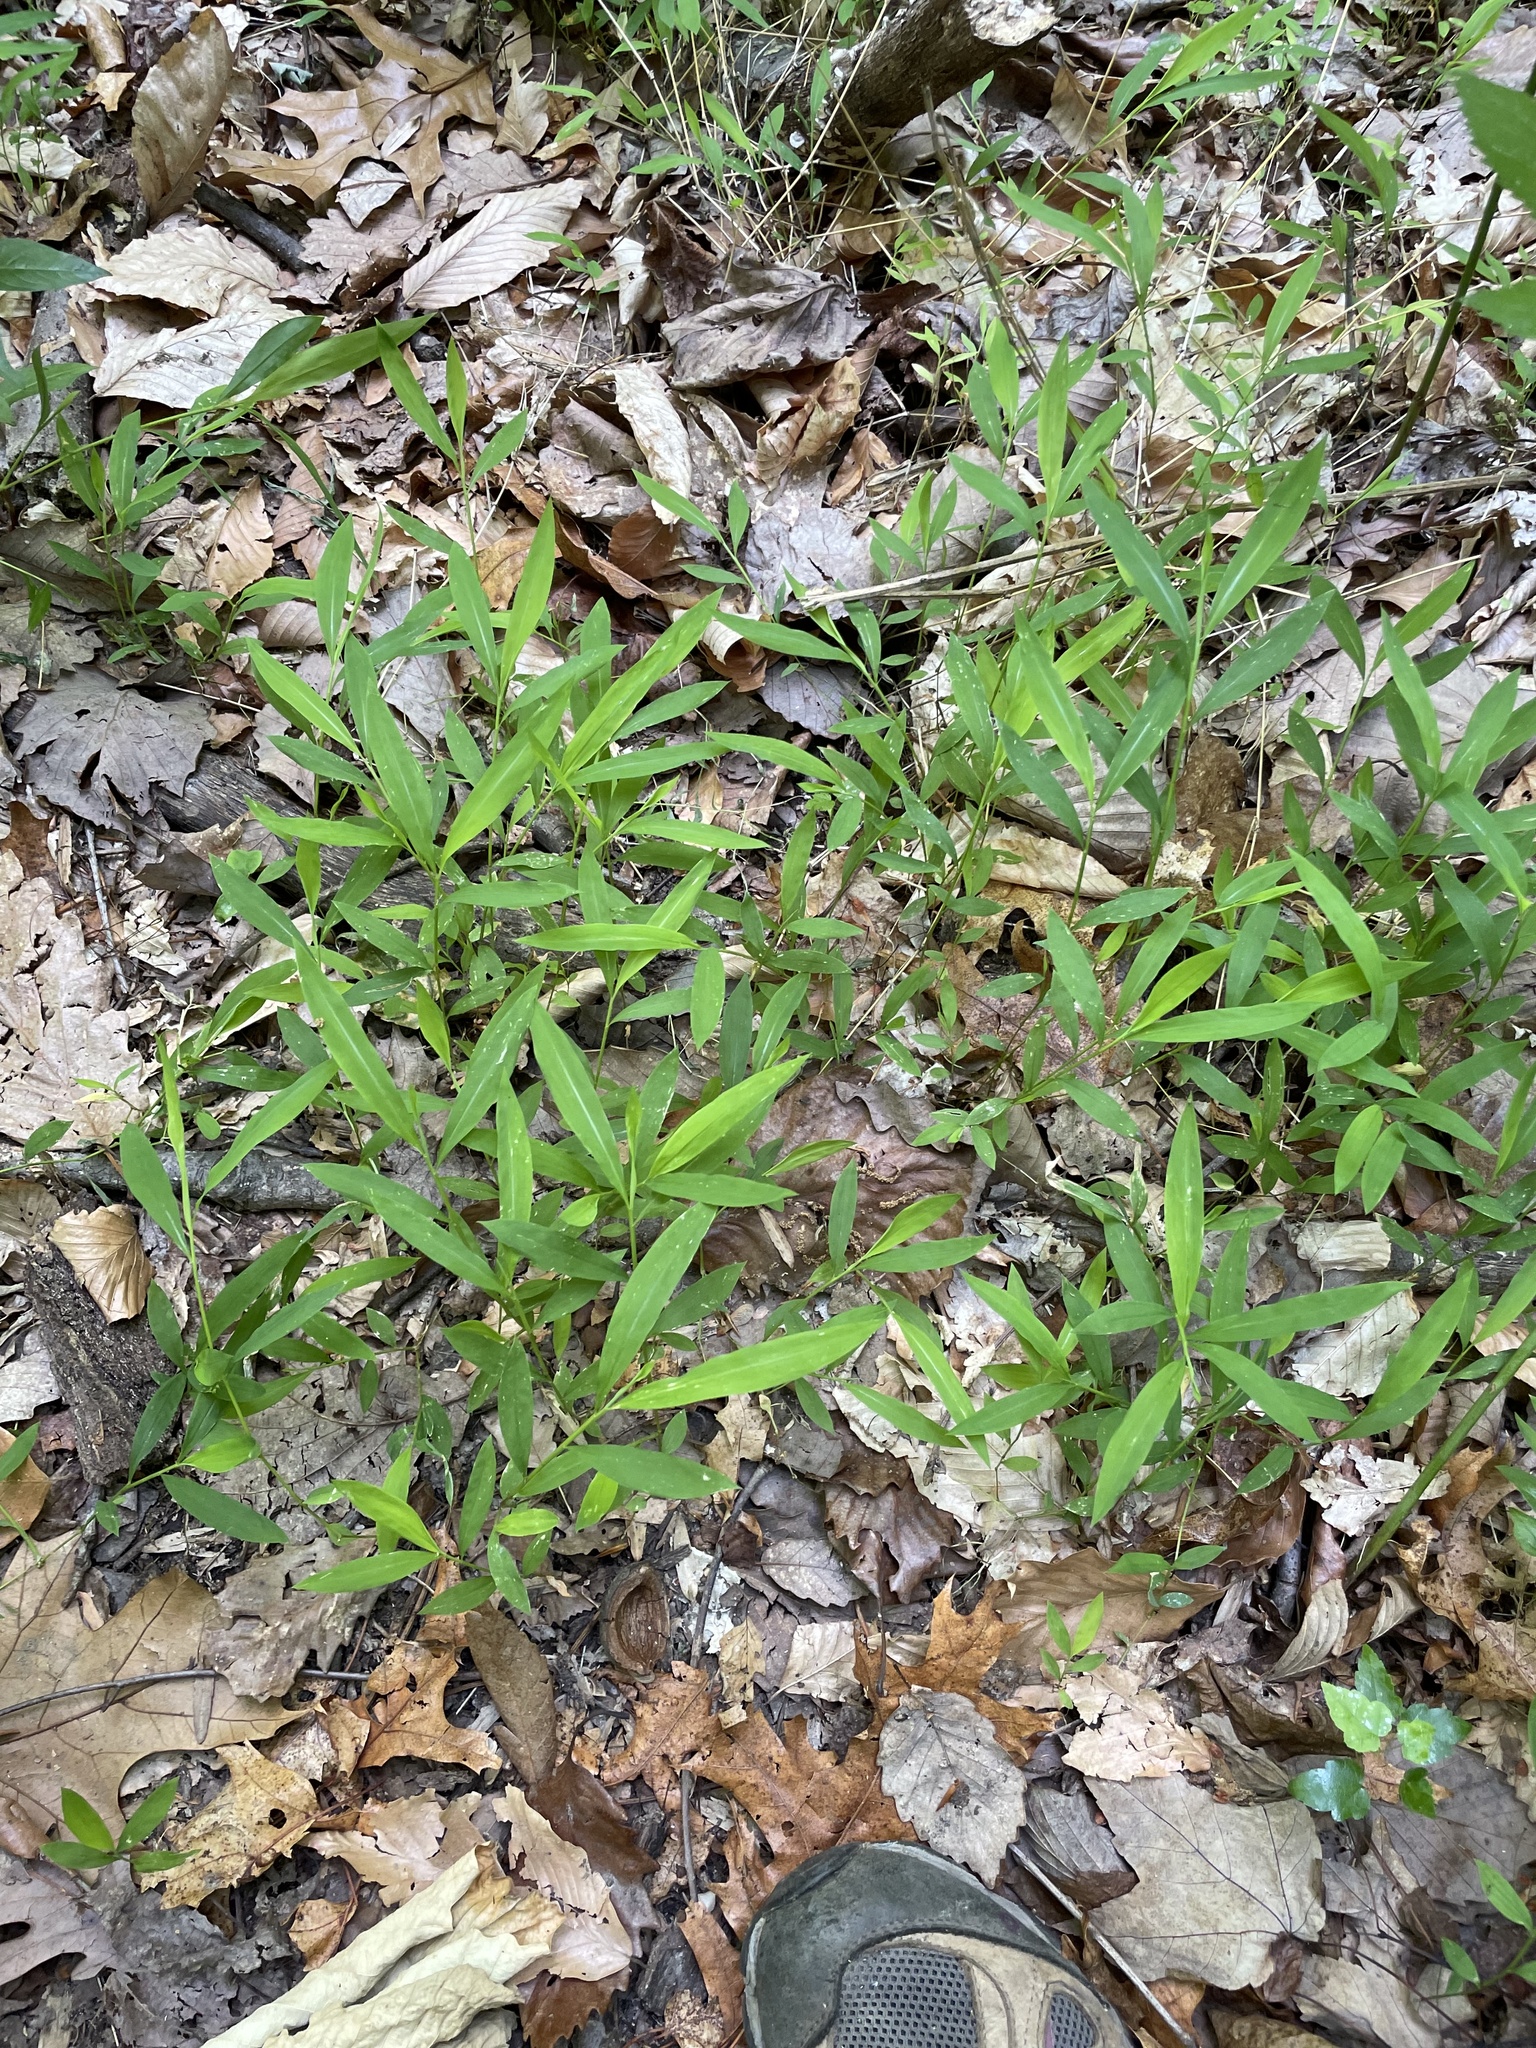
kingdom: Plantae
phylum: Tracheophyta
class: Liliopsida
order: Poales
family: Poaceae
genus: Microstegium
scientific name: Microstegium vimineum
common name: Japanese stiltgrass
